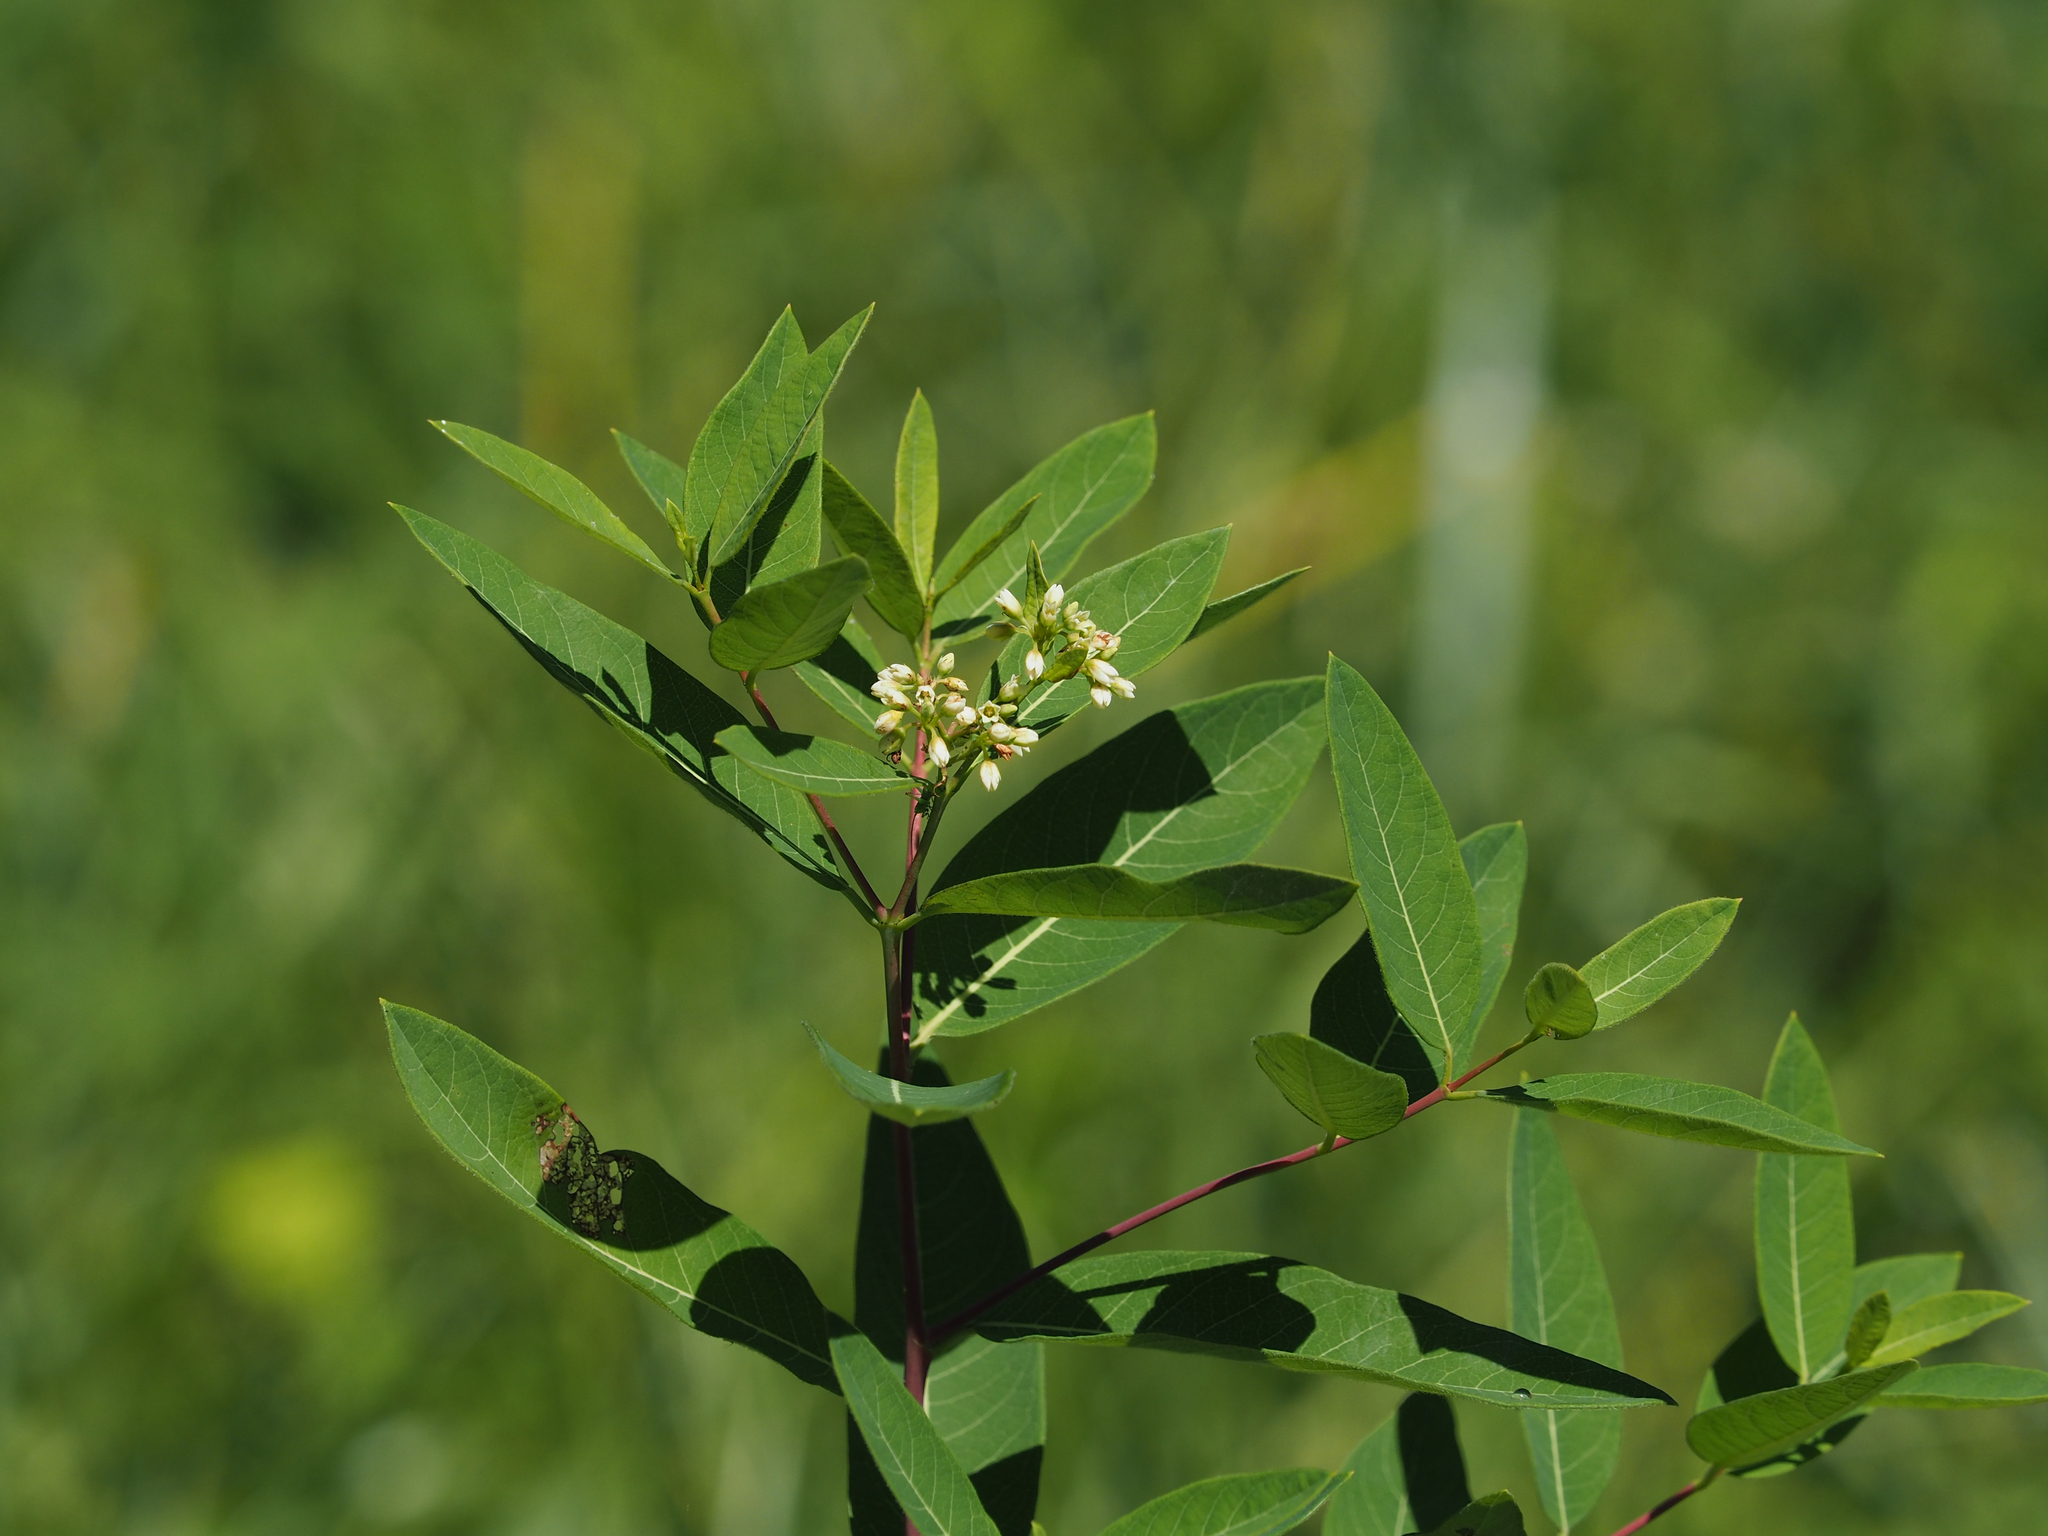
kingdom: Plantae
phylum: Tracheophyta
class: Magnoliopsida
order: Gentianales
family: Apocynaceae
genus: Apocynum
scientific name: Apocynum cannabinum
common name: Hemp dogbane
